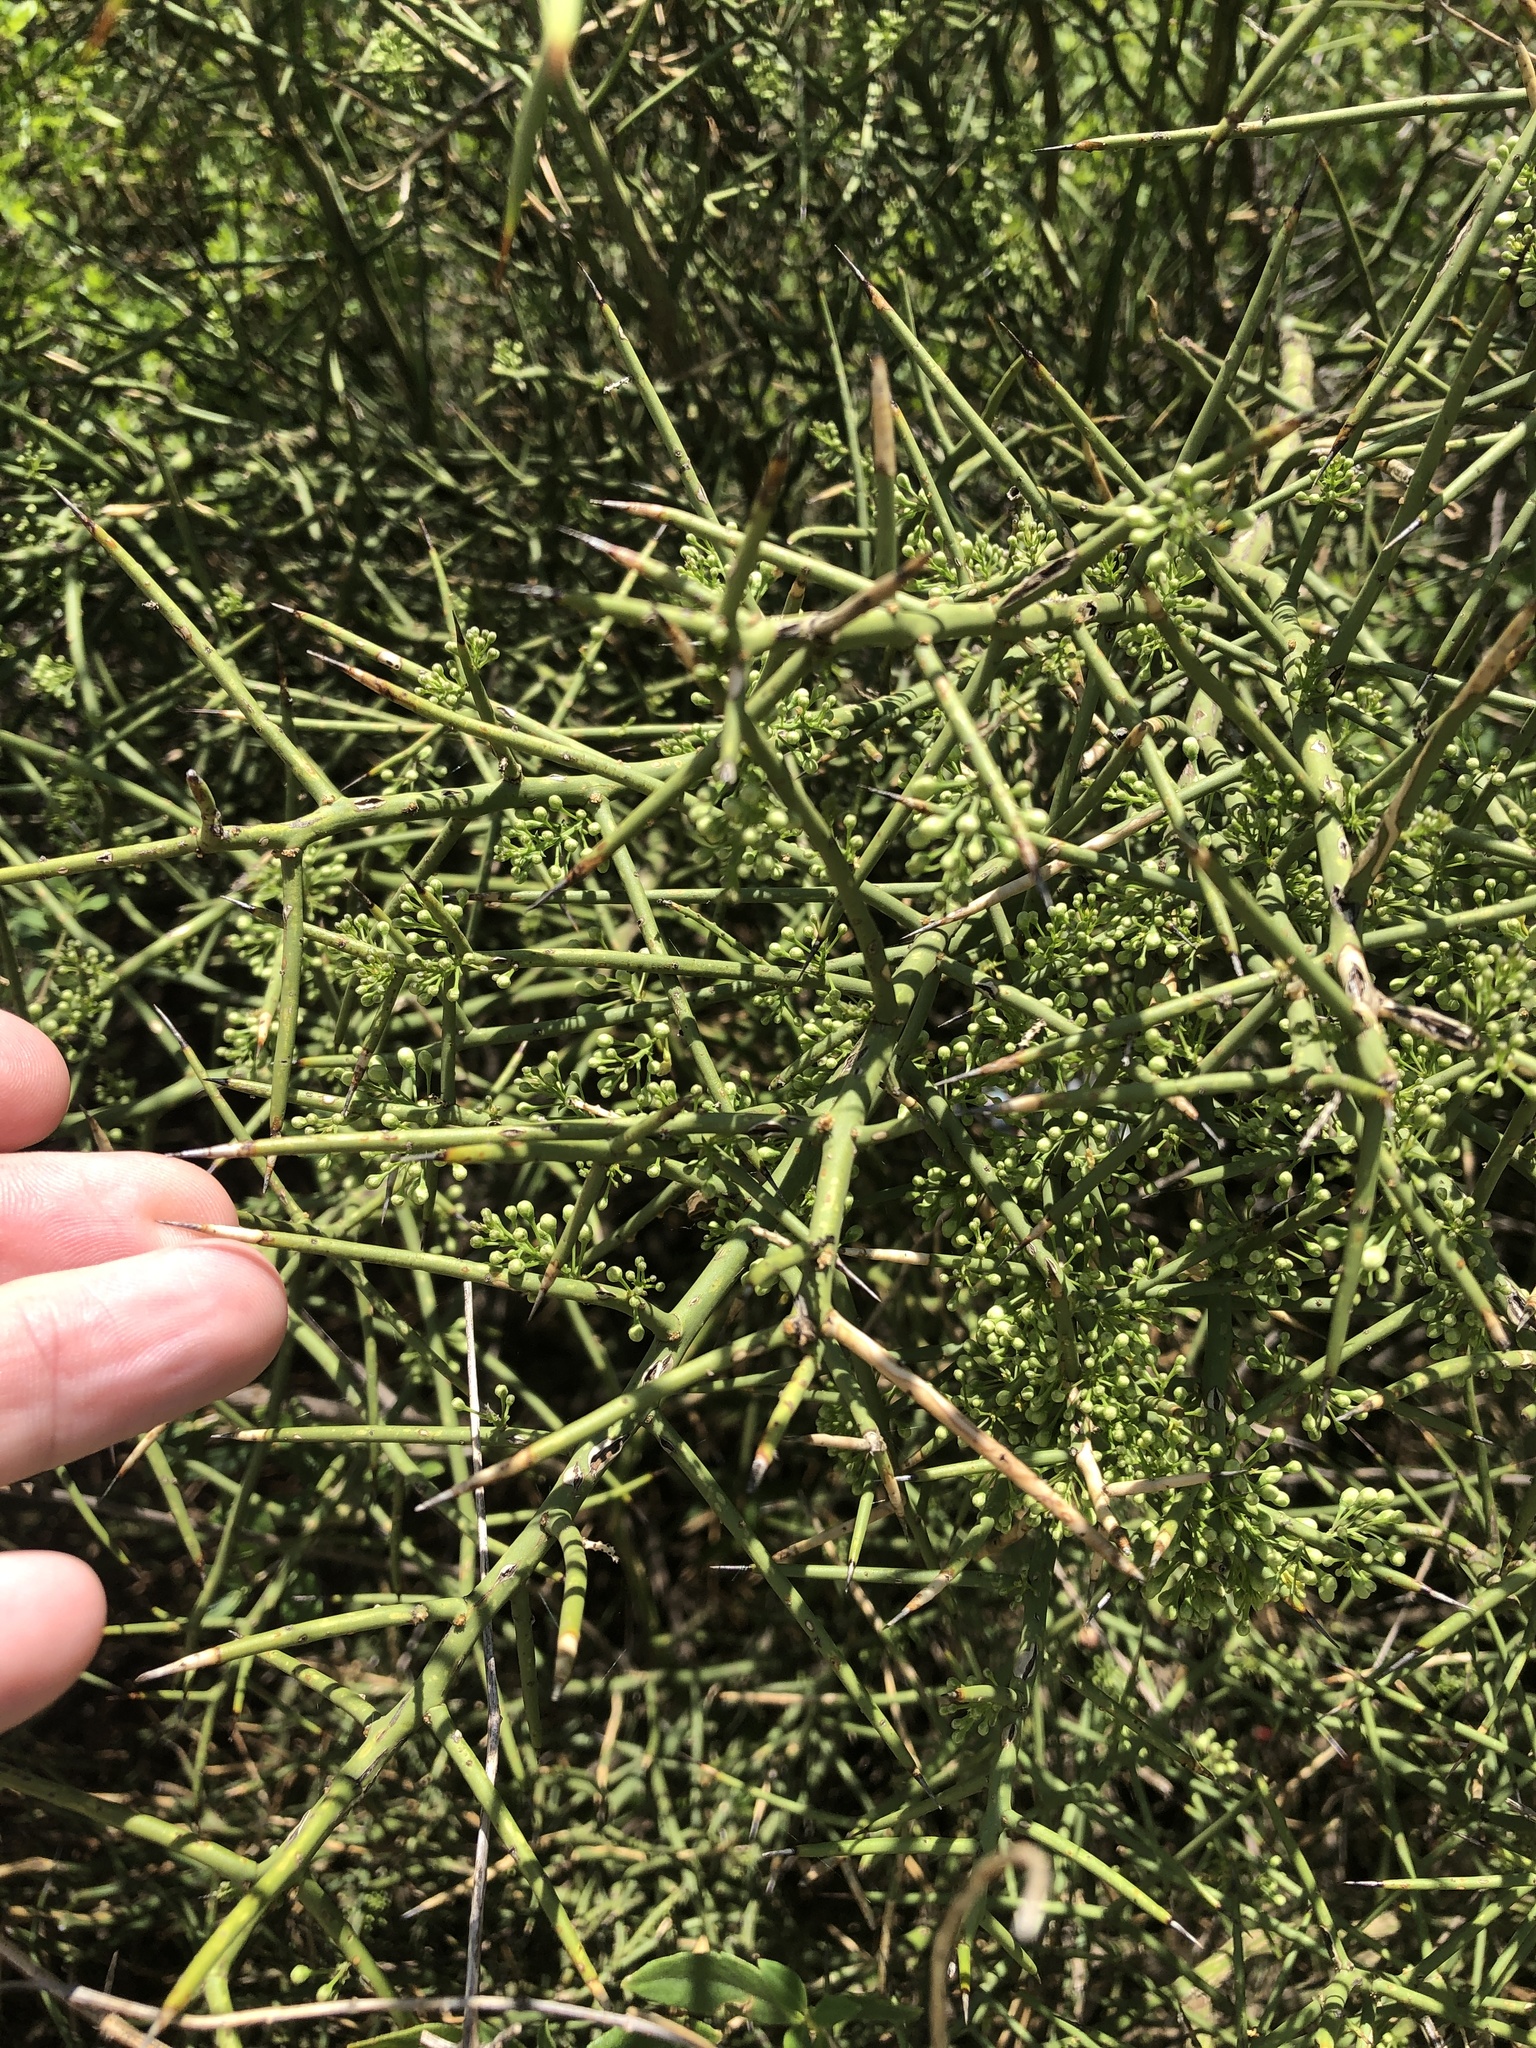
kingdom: Plantae
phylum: Tracheophyta
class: Magnoliopsida
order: Brassicales
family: Koeberliniaceae
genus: Koeberlinia
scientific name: Koeberlinia spinosa
